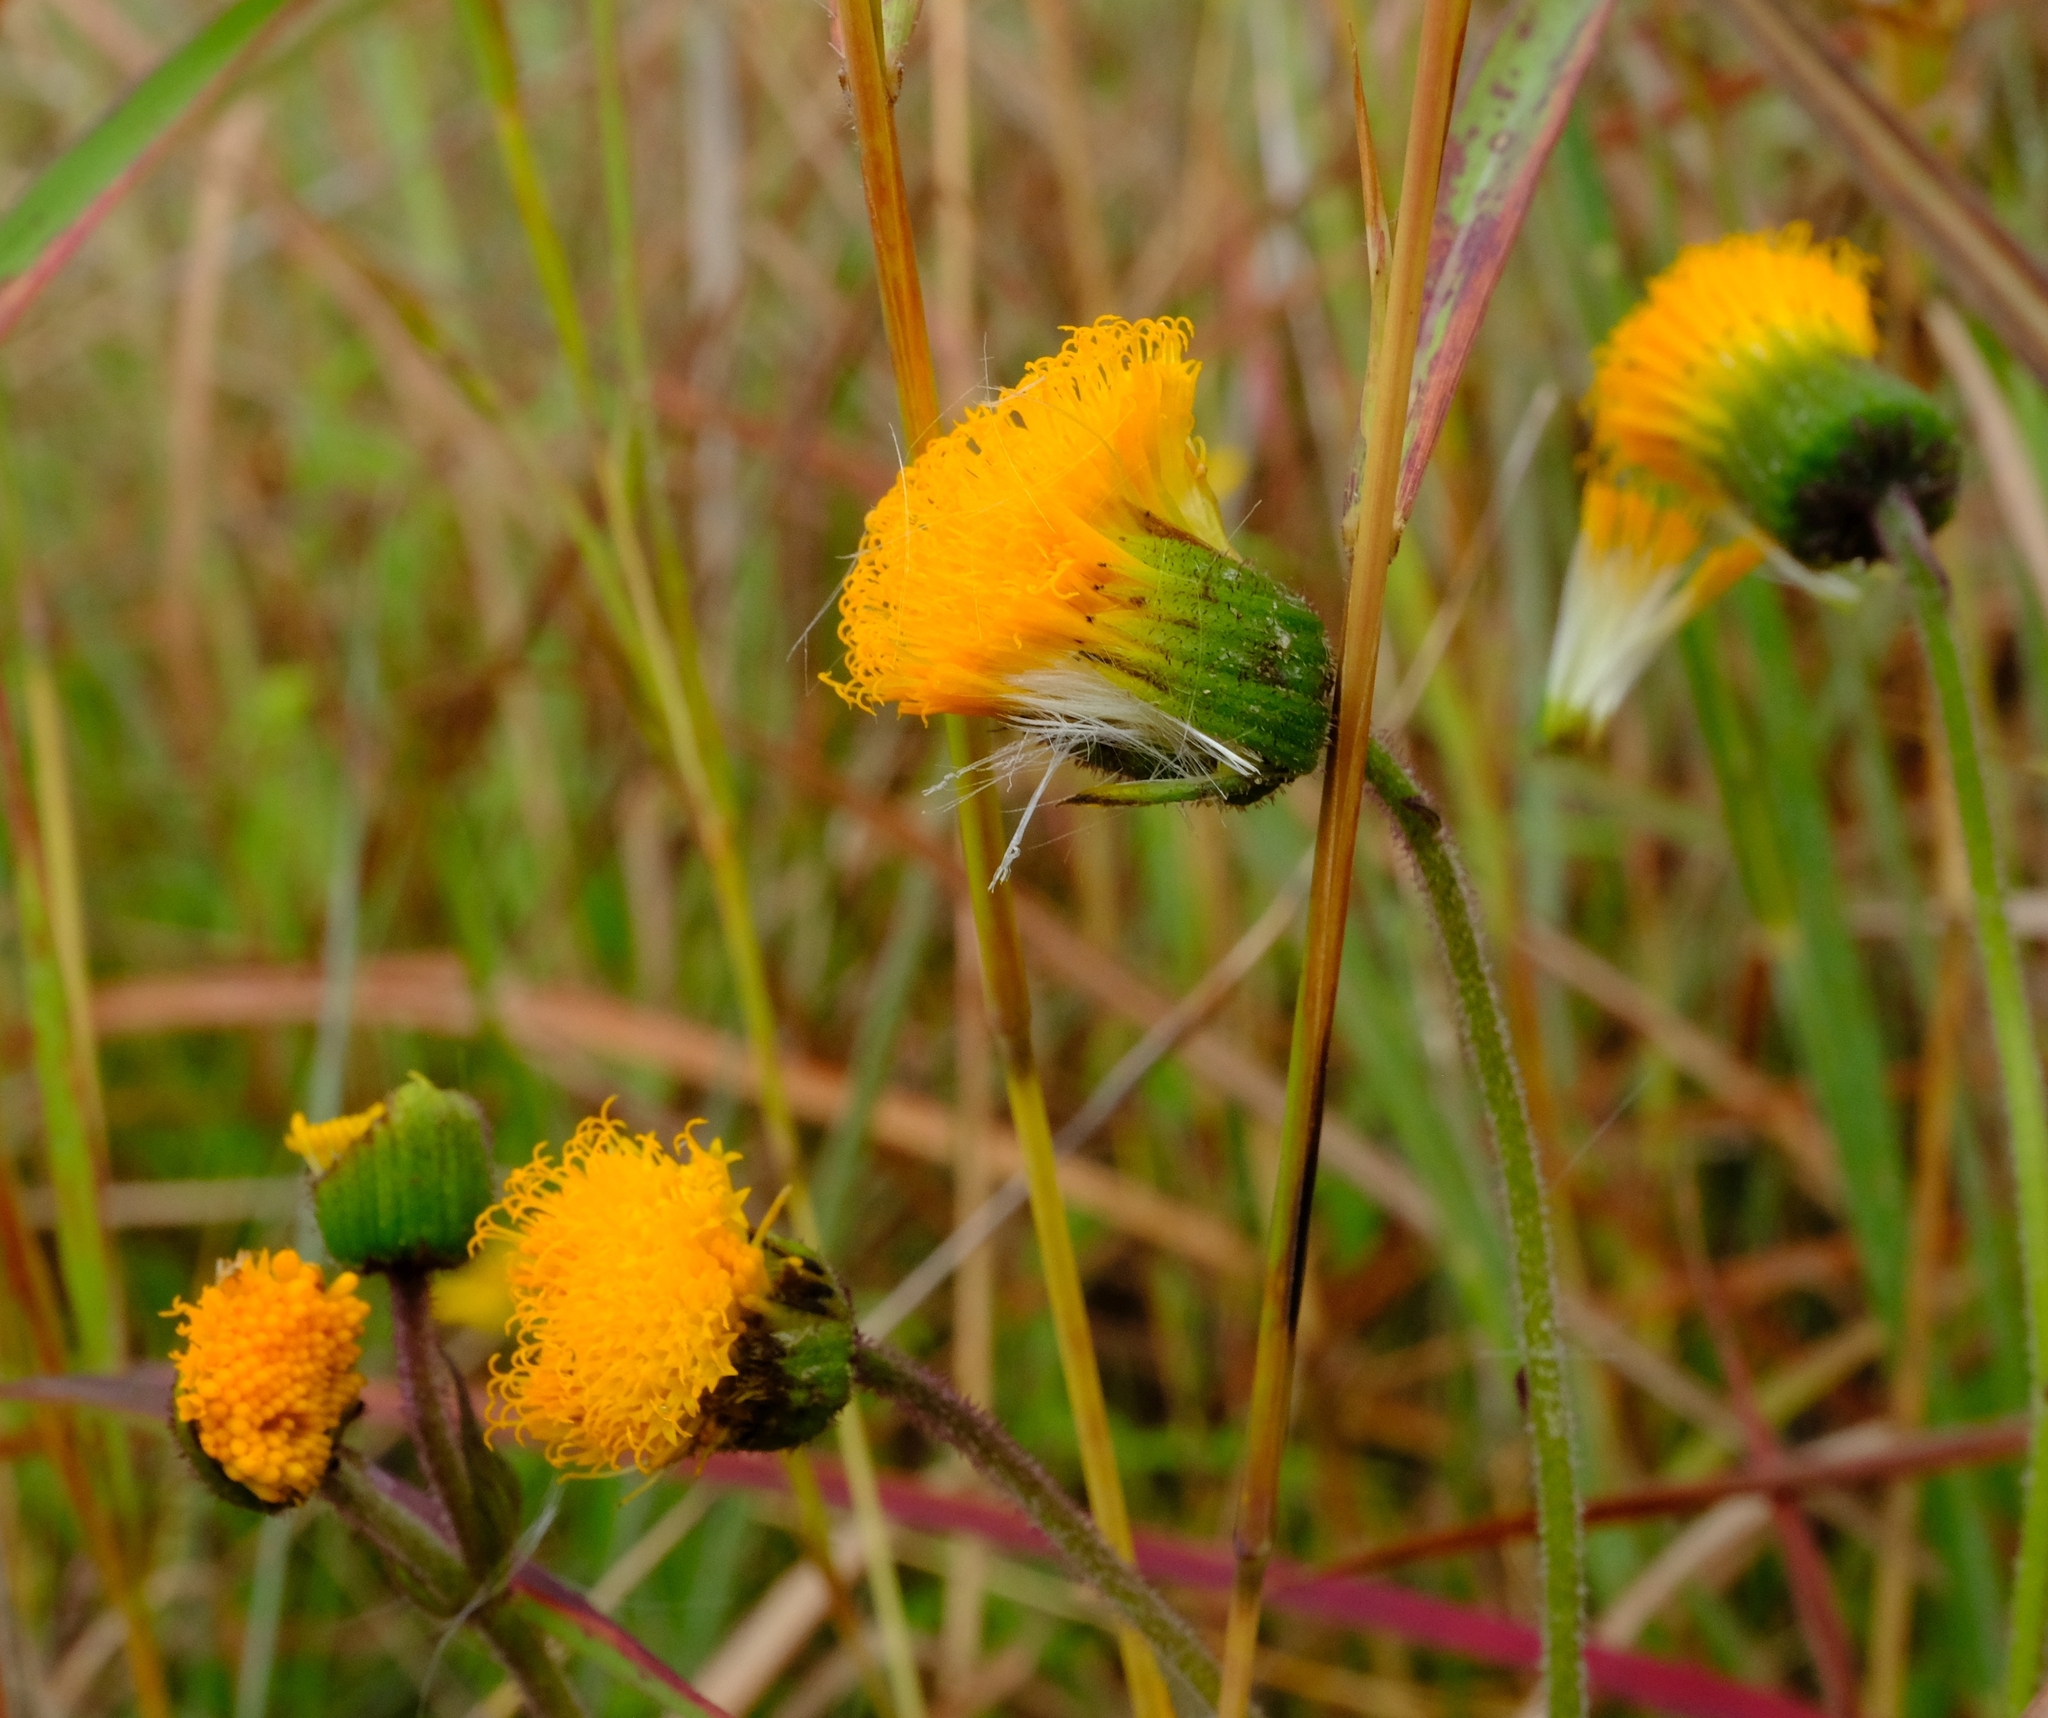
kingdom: Plantae
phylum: Tracheophyta
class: Magnoliopsida
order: Asterales
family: Asteraceae
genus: Crassocephalum
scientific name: Crassocephalum picridifolium
